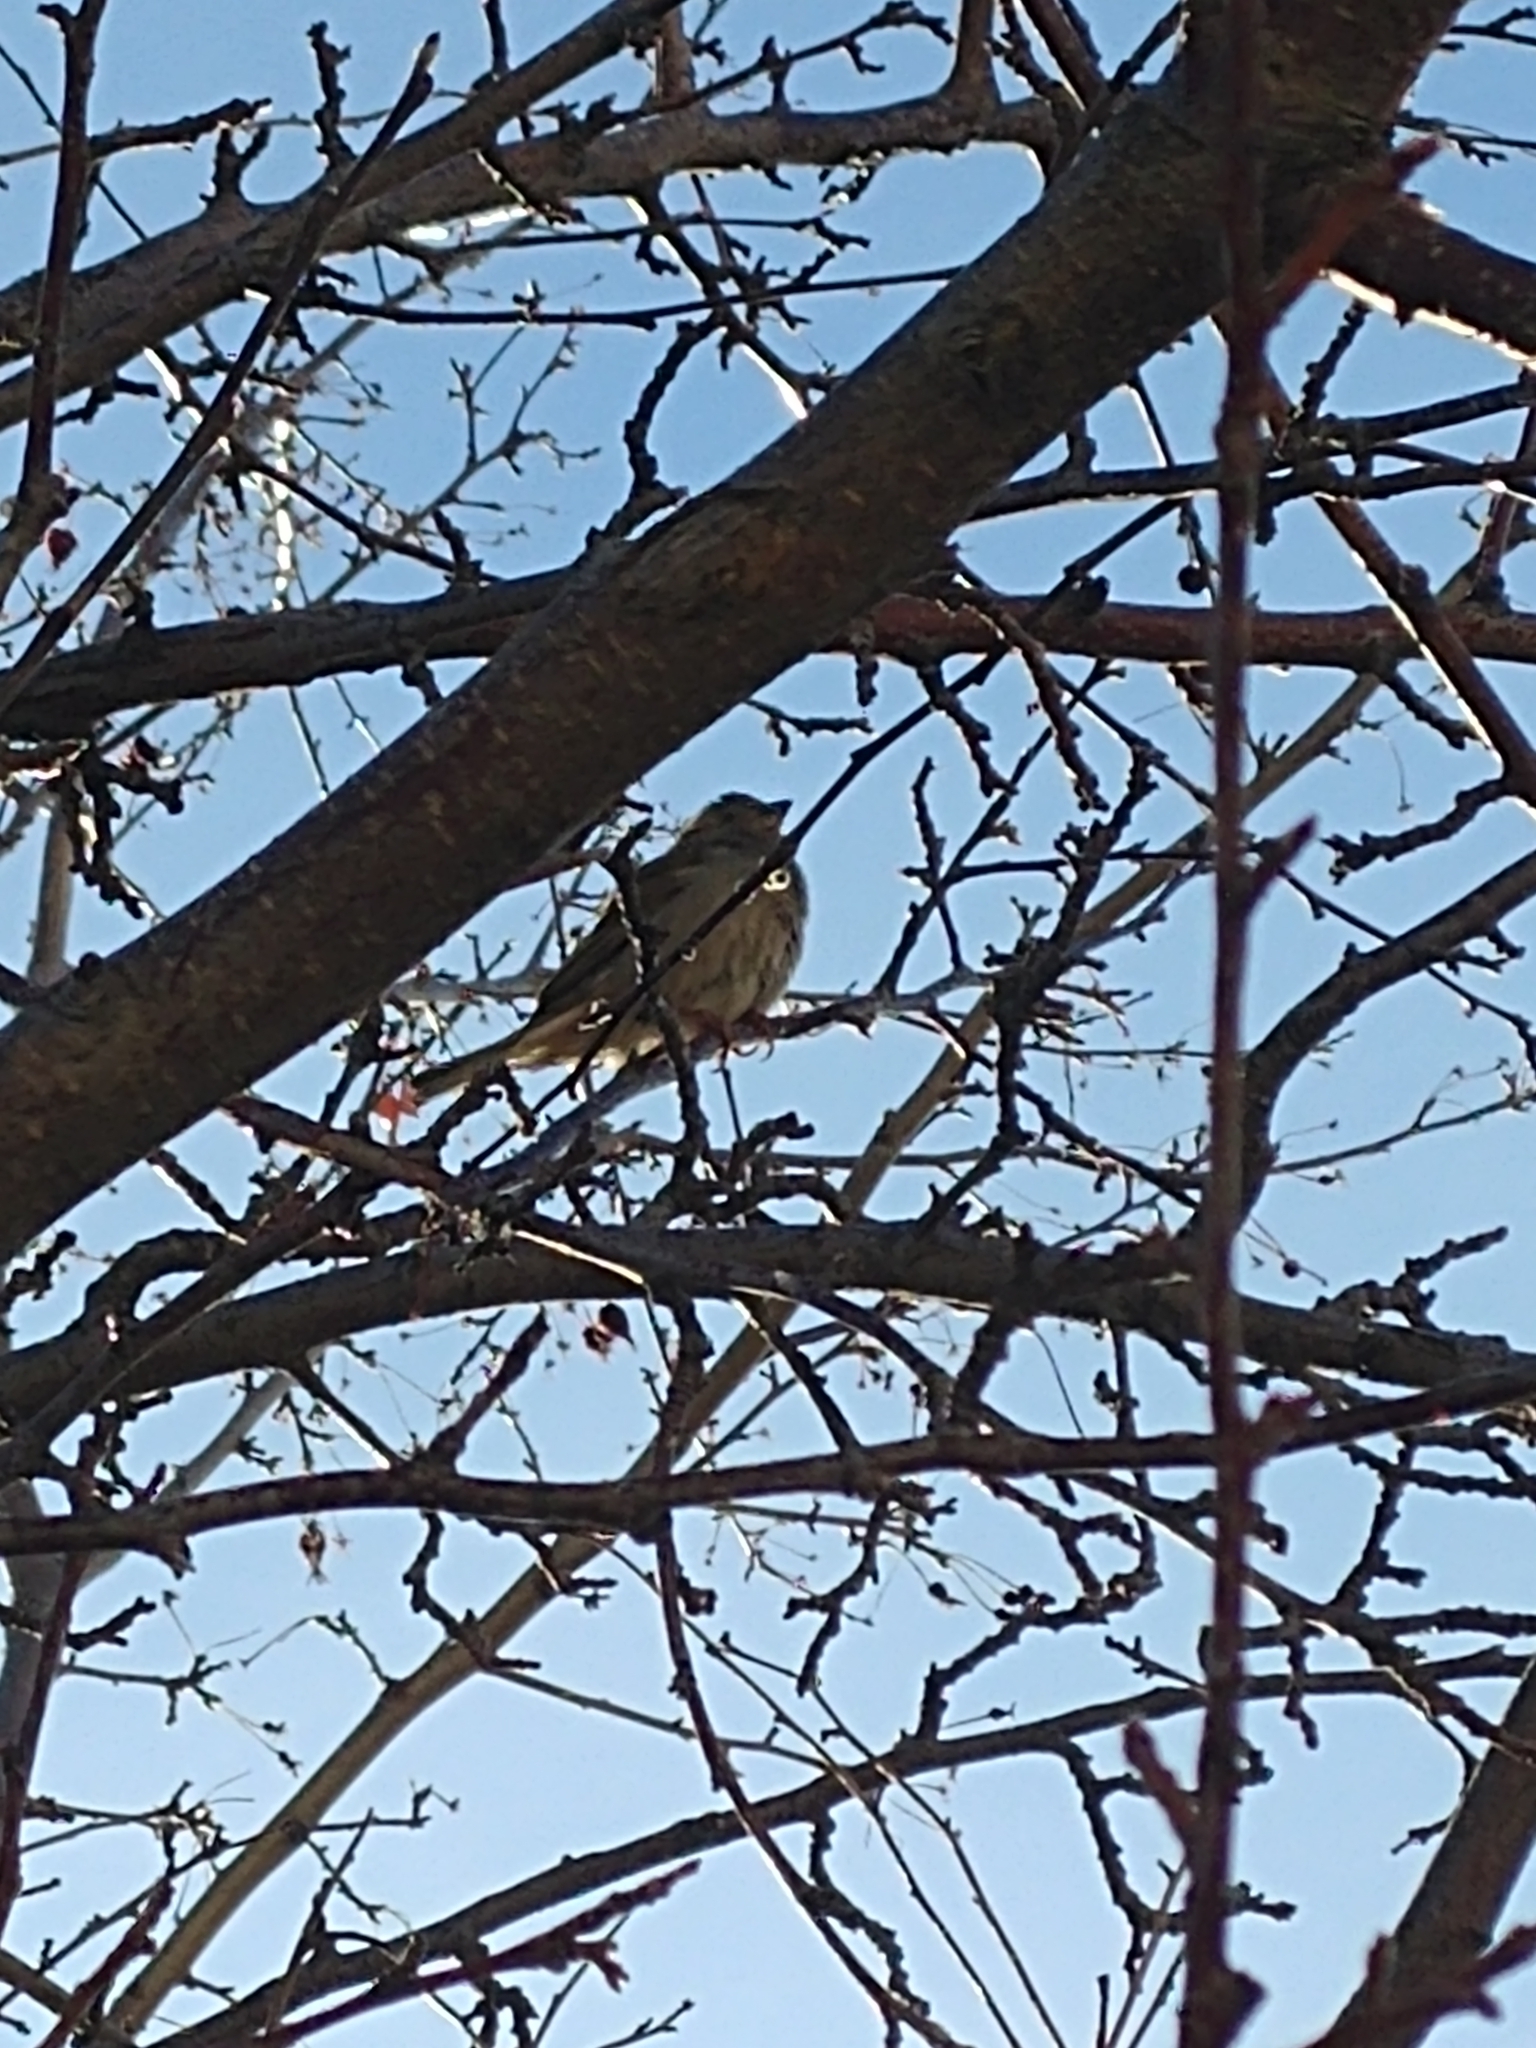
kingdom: Animalia
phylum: Chordata
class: Aves
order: Passeriformes
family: Passeridae
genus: Passer
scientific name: Passer domesticus
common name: House sparrow
